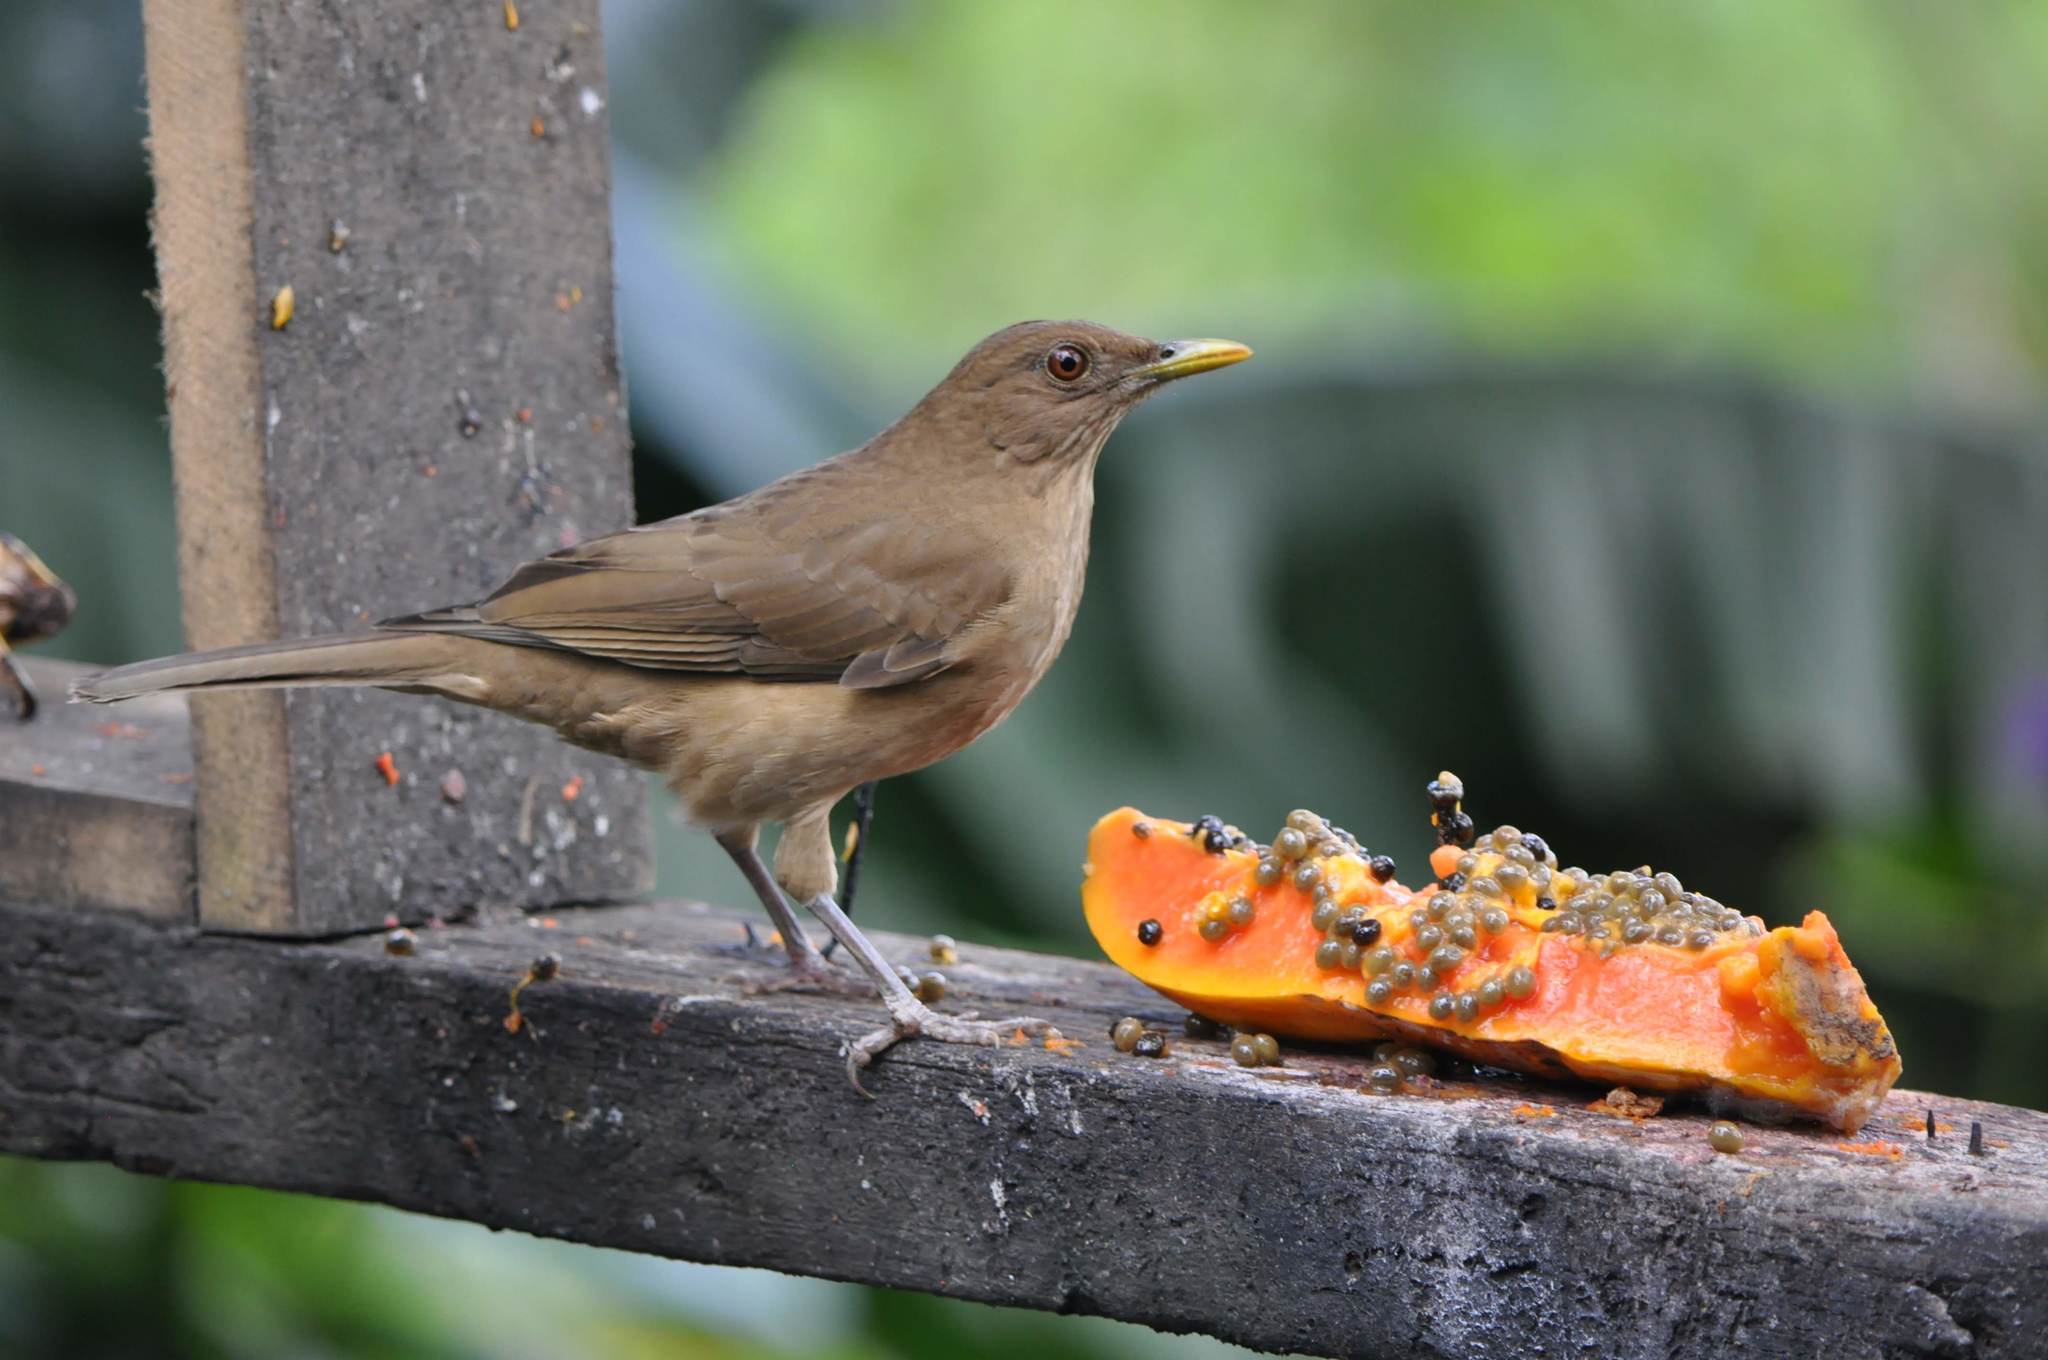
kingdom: Animalia
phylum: Chordata
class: Aves
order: Passeriformes
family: Turdidae
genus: Turdus
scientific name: Turdus grayi
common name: Clay-colored thrush
